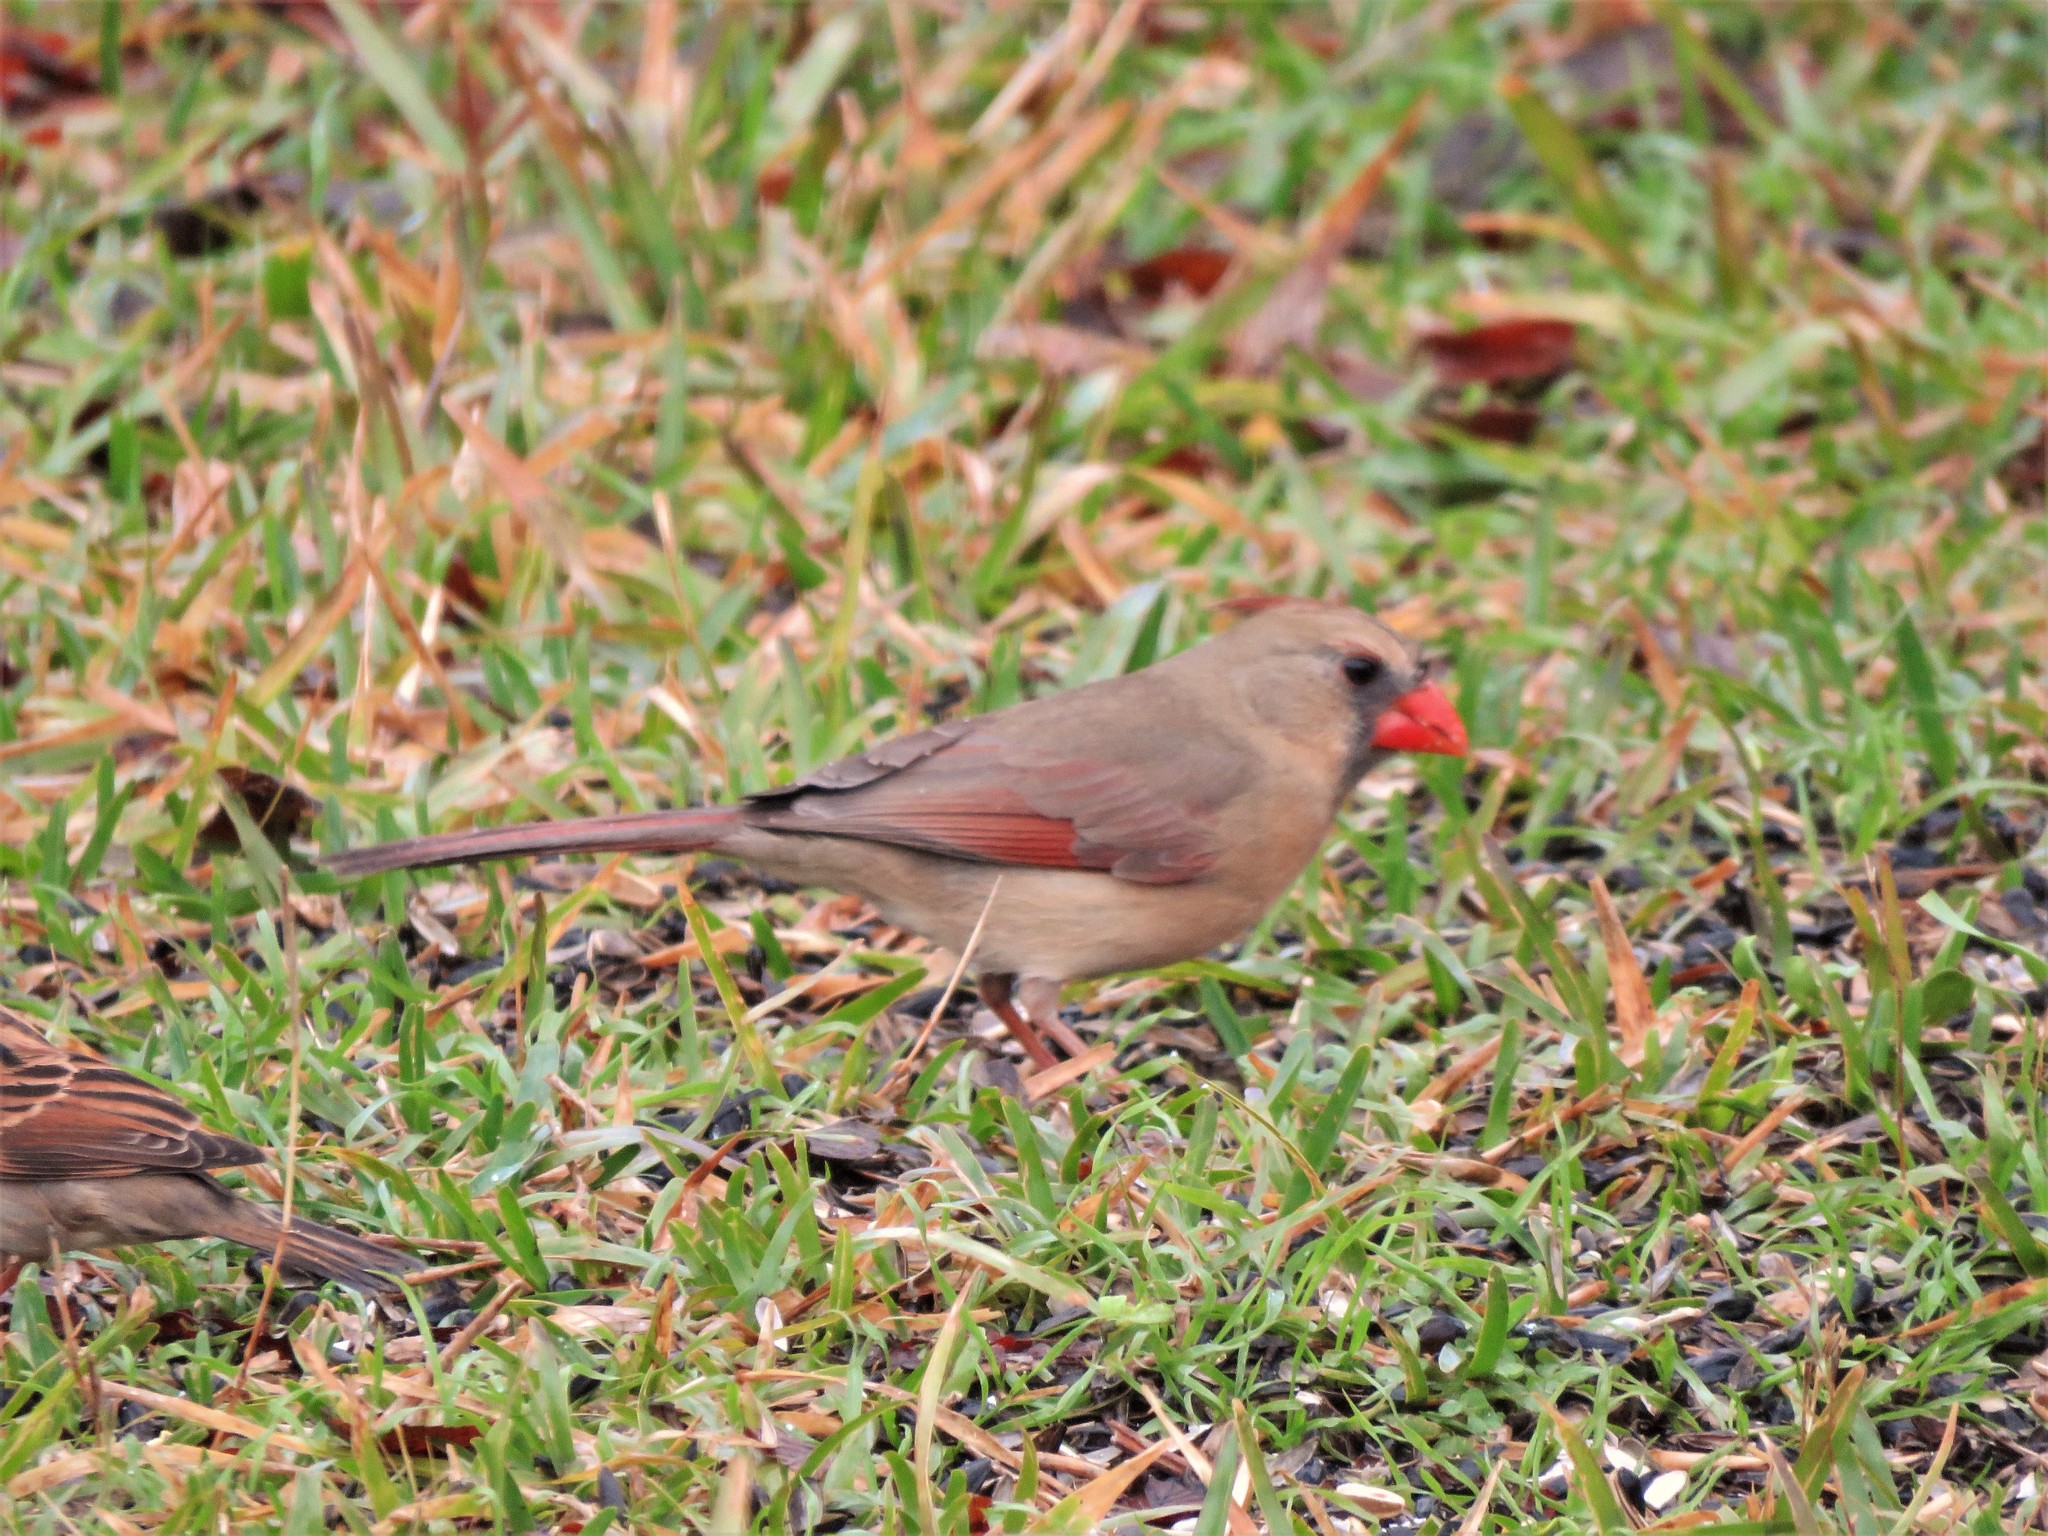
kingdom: Animalia
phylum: Chordata
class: Aves
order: Passeriformes
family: Cardinalidae
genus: Cardinalis
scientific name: Cardinalis cardinalis
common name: Northern cardinal
